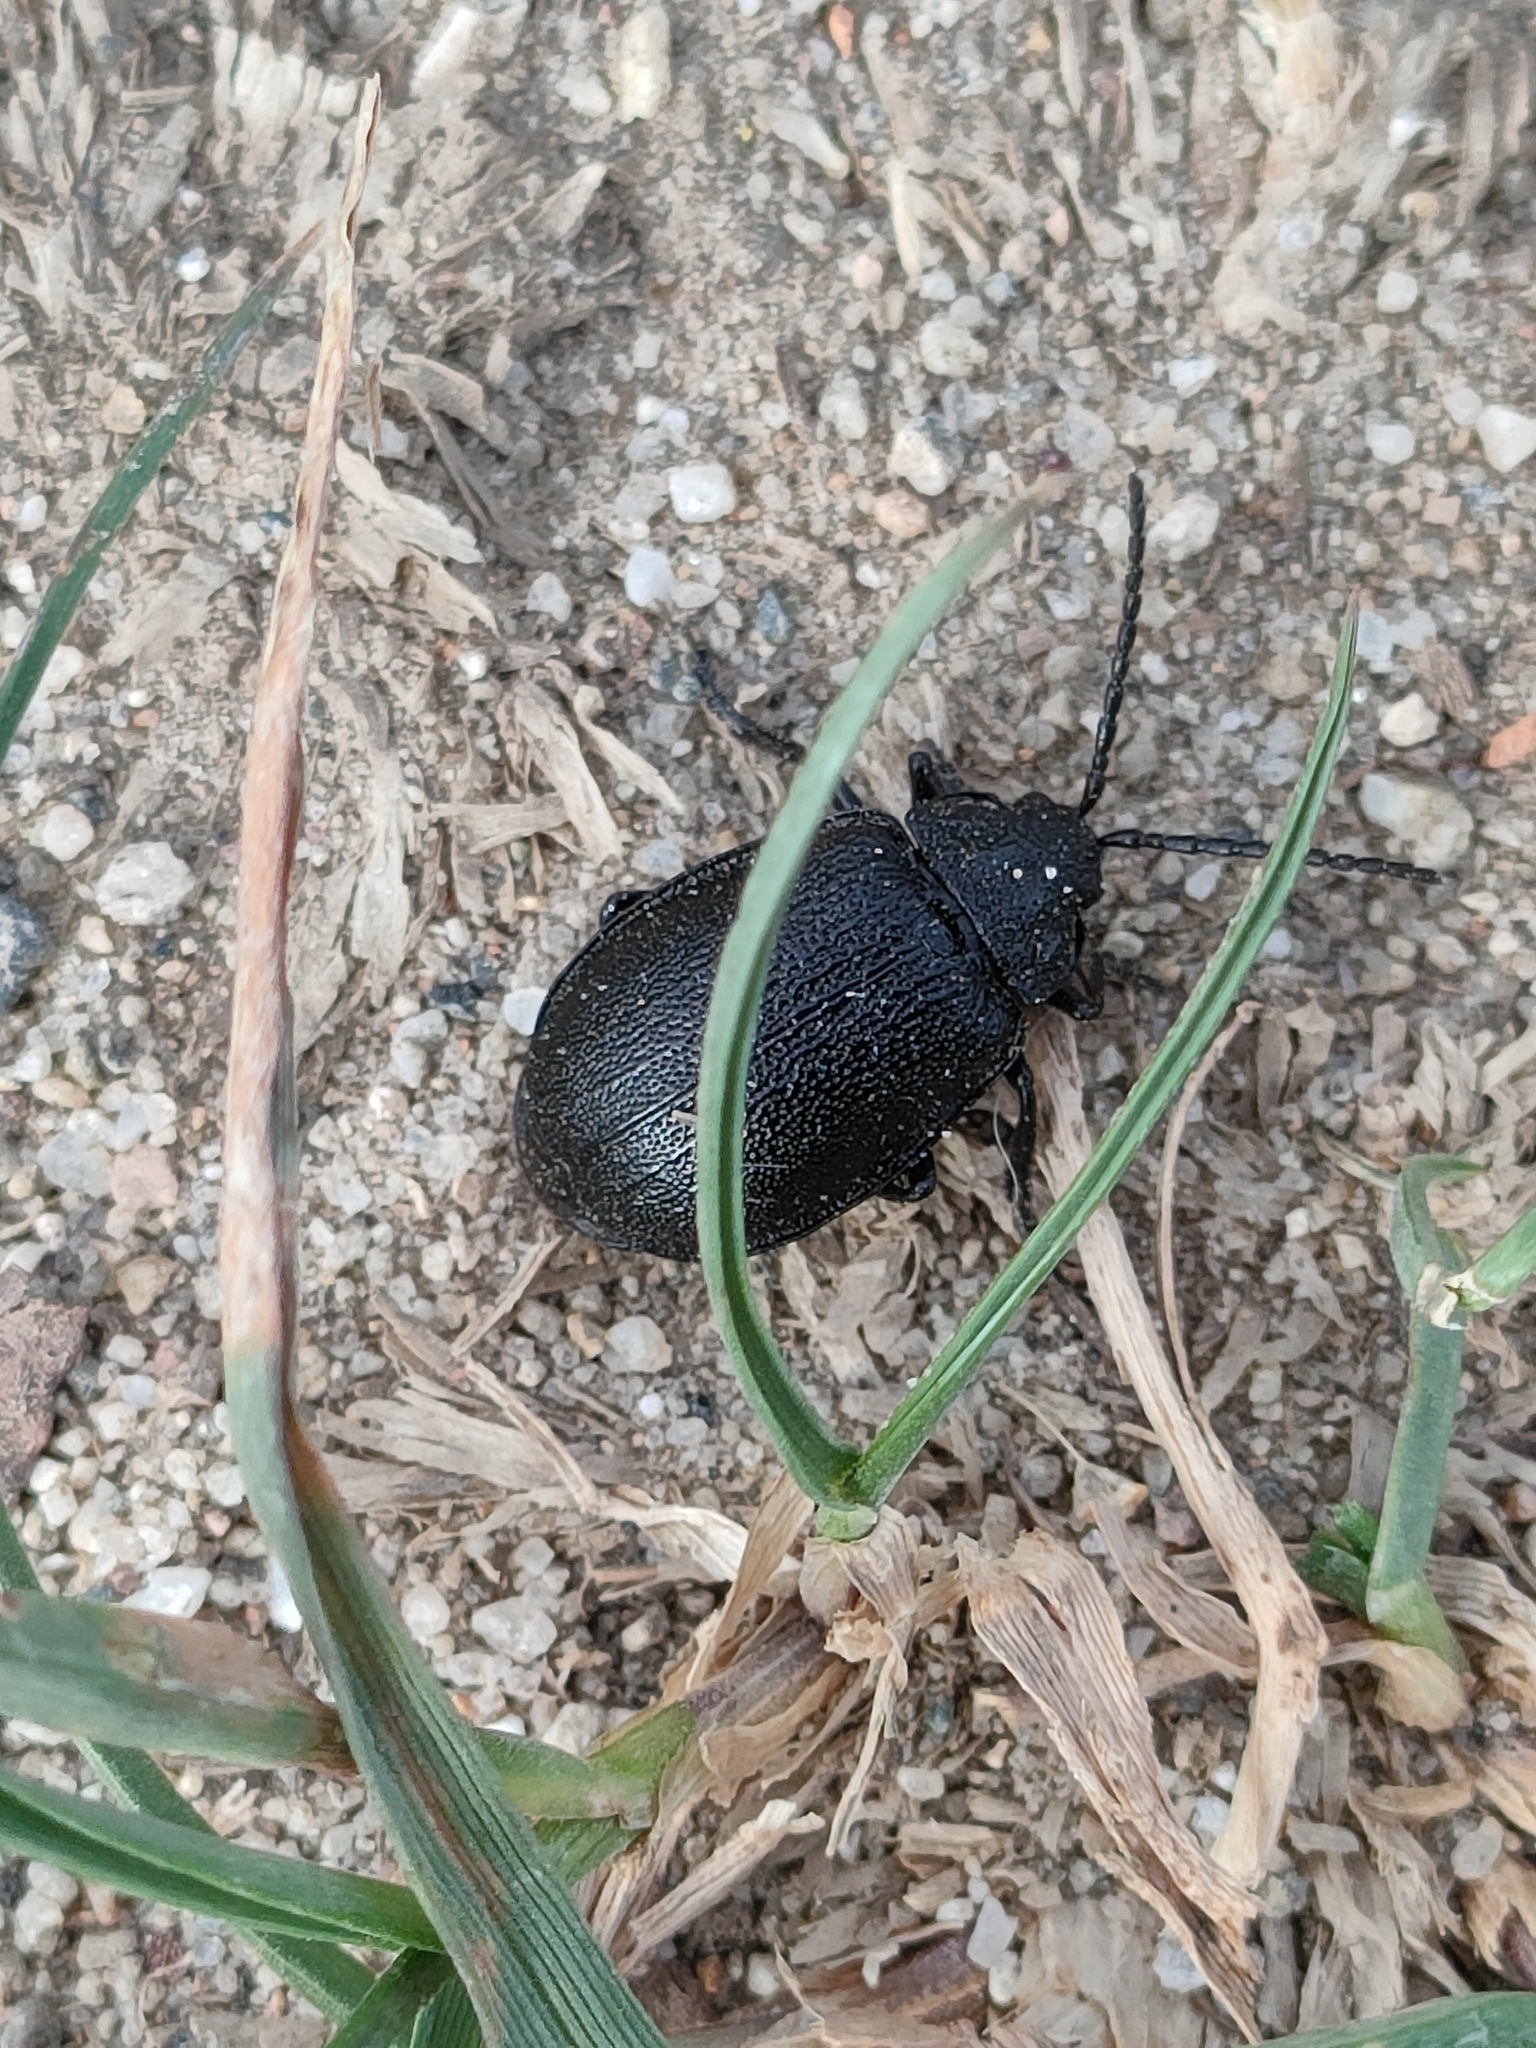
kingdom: Animalia
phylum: Arthropoda
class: Insecta
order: Coleoptera
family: Chrysomelidae
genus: Galeruca
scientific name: Galeruca tanaceti
